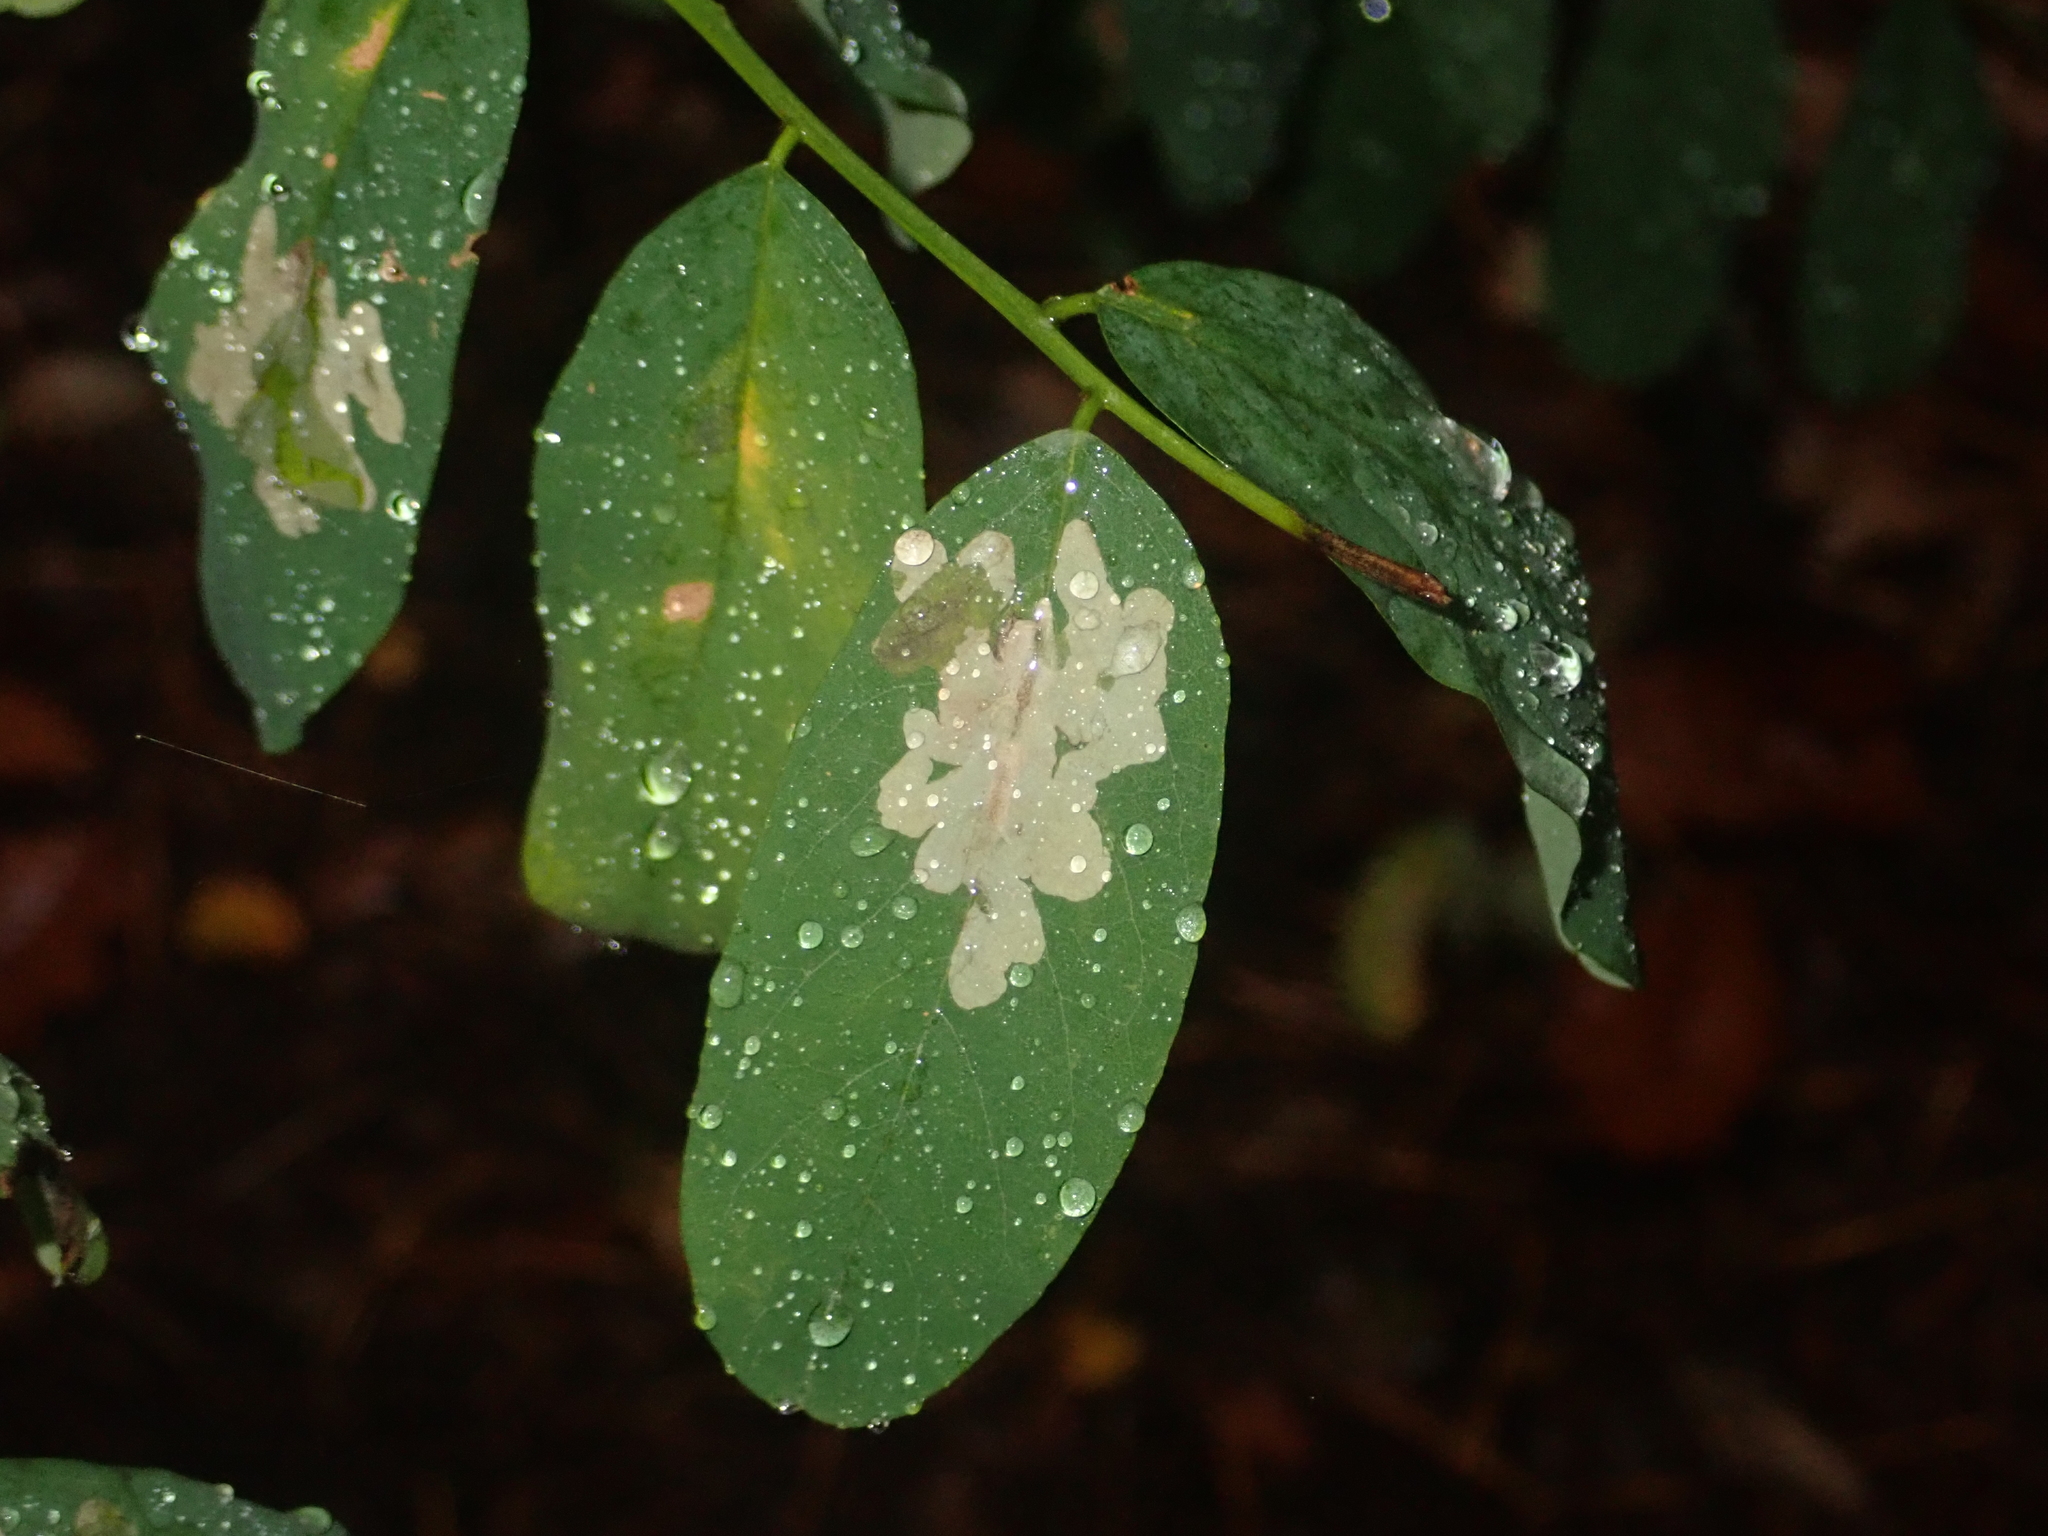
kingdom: Animalia
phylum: Arthropoda
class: Insecta
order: Lepidoptera
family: Gracillariidae
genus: Parectopa
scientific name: Parectopa robiniella
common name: Locust digitate leafminer
